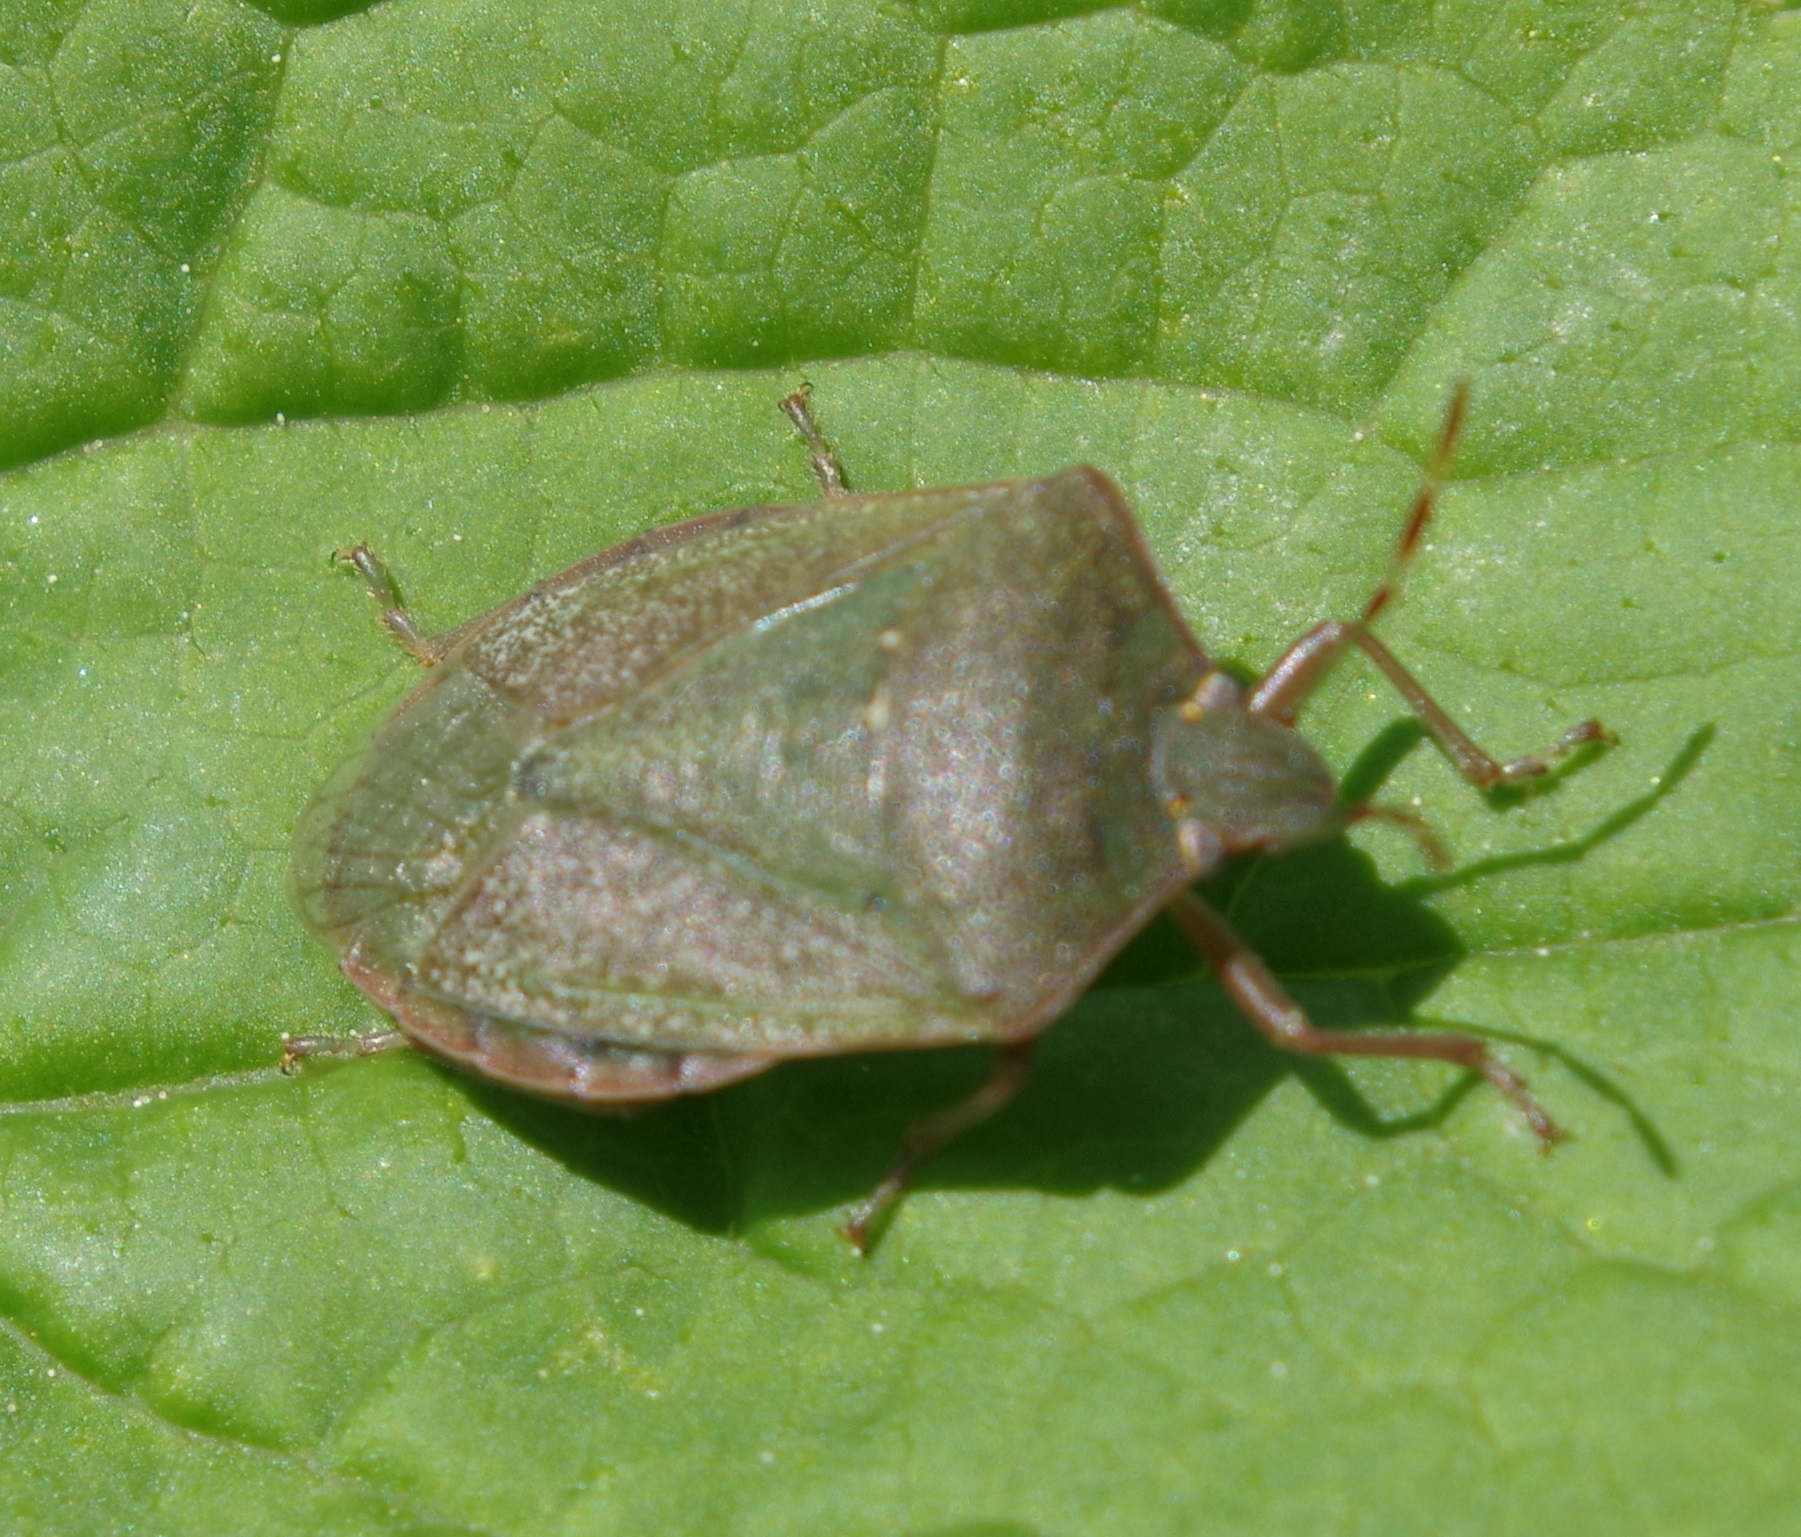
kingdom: Animalia
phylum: Arthropoda
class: Insecta
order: Hemiptera
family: Pentatomidae
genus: Nezara
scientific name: Nezara viridula
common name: Southern green stink bug
